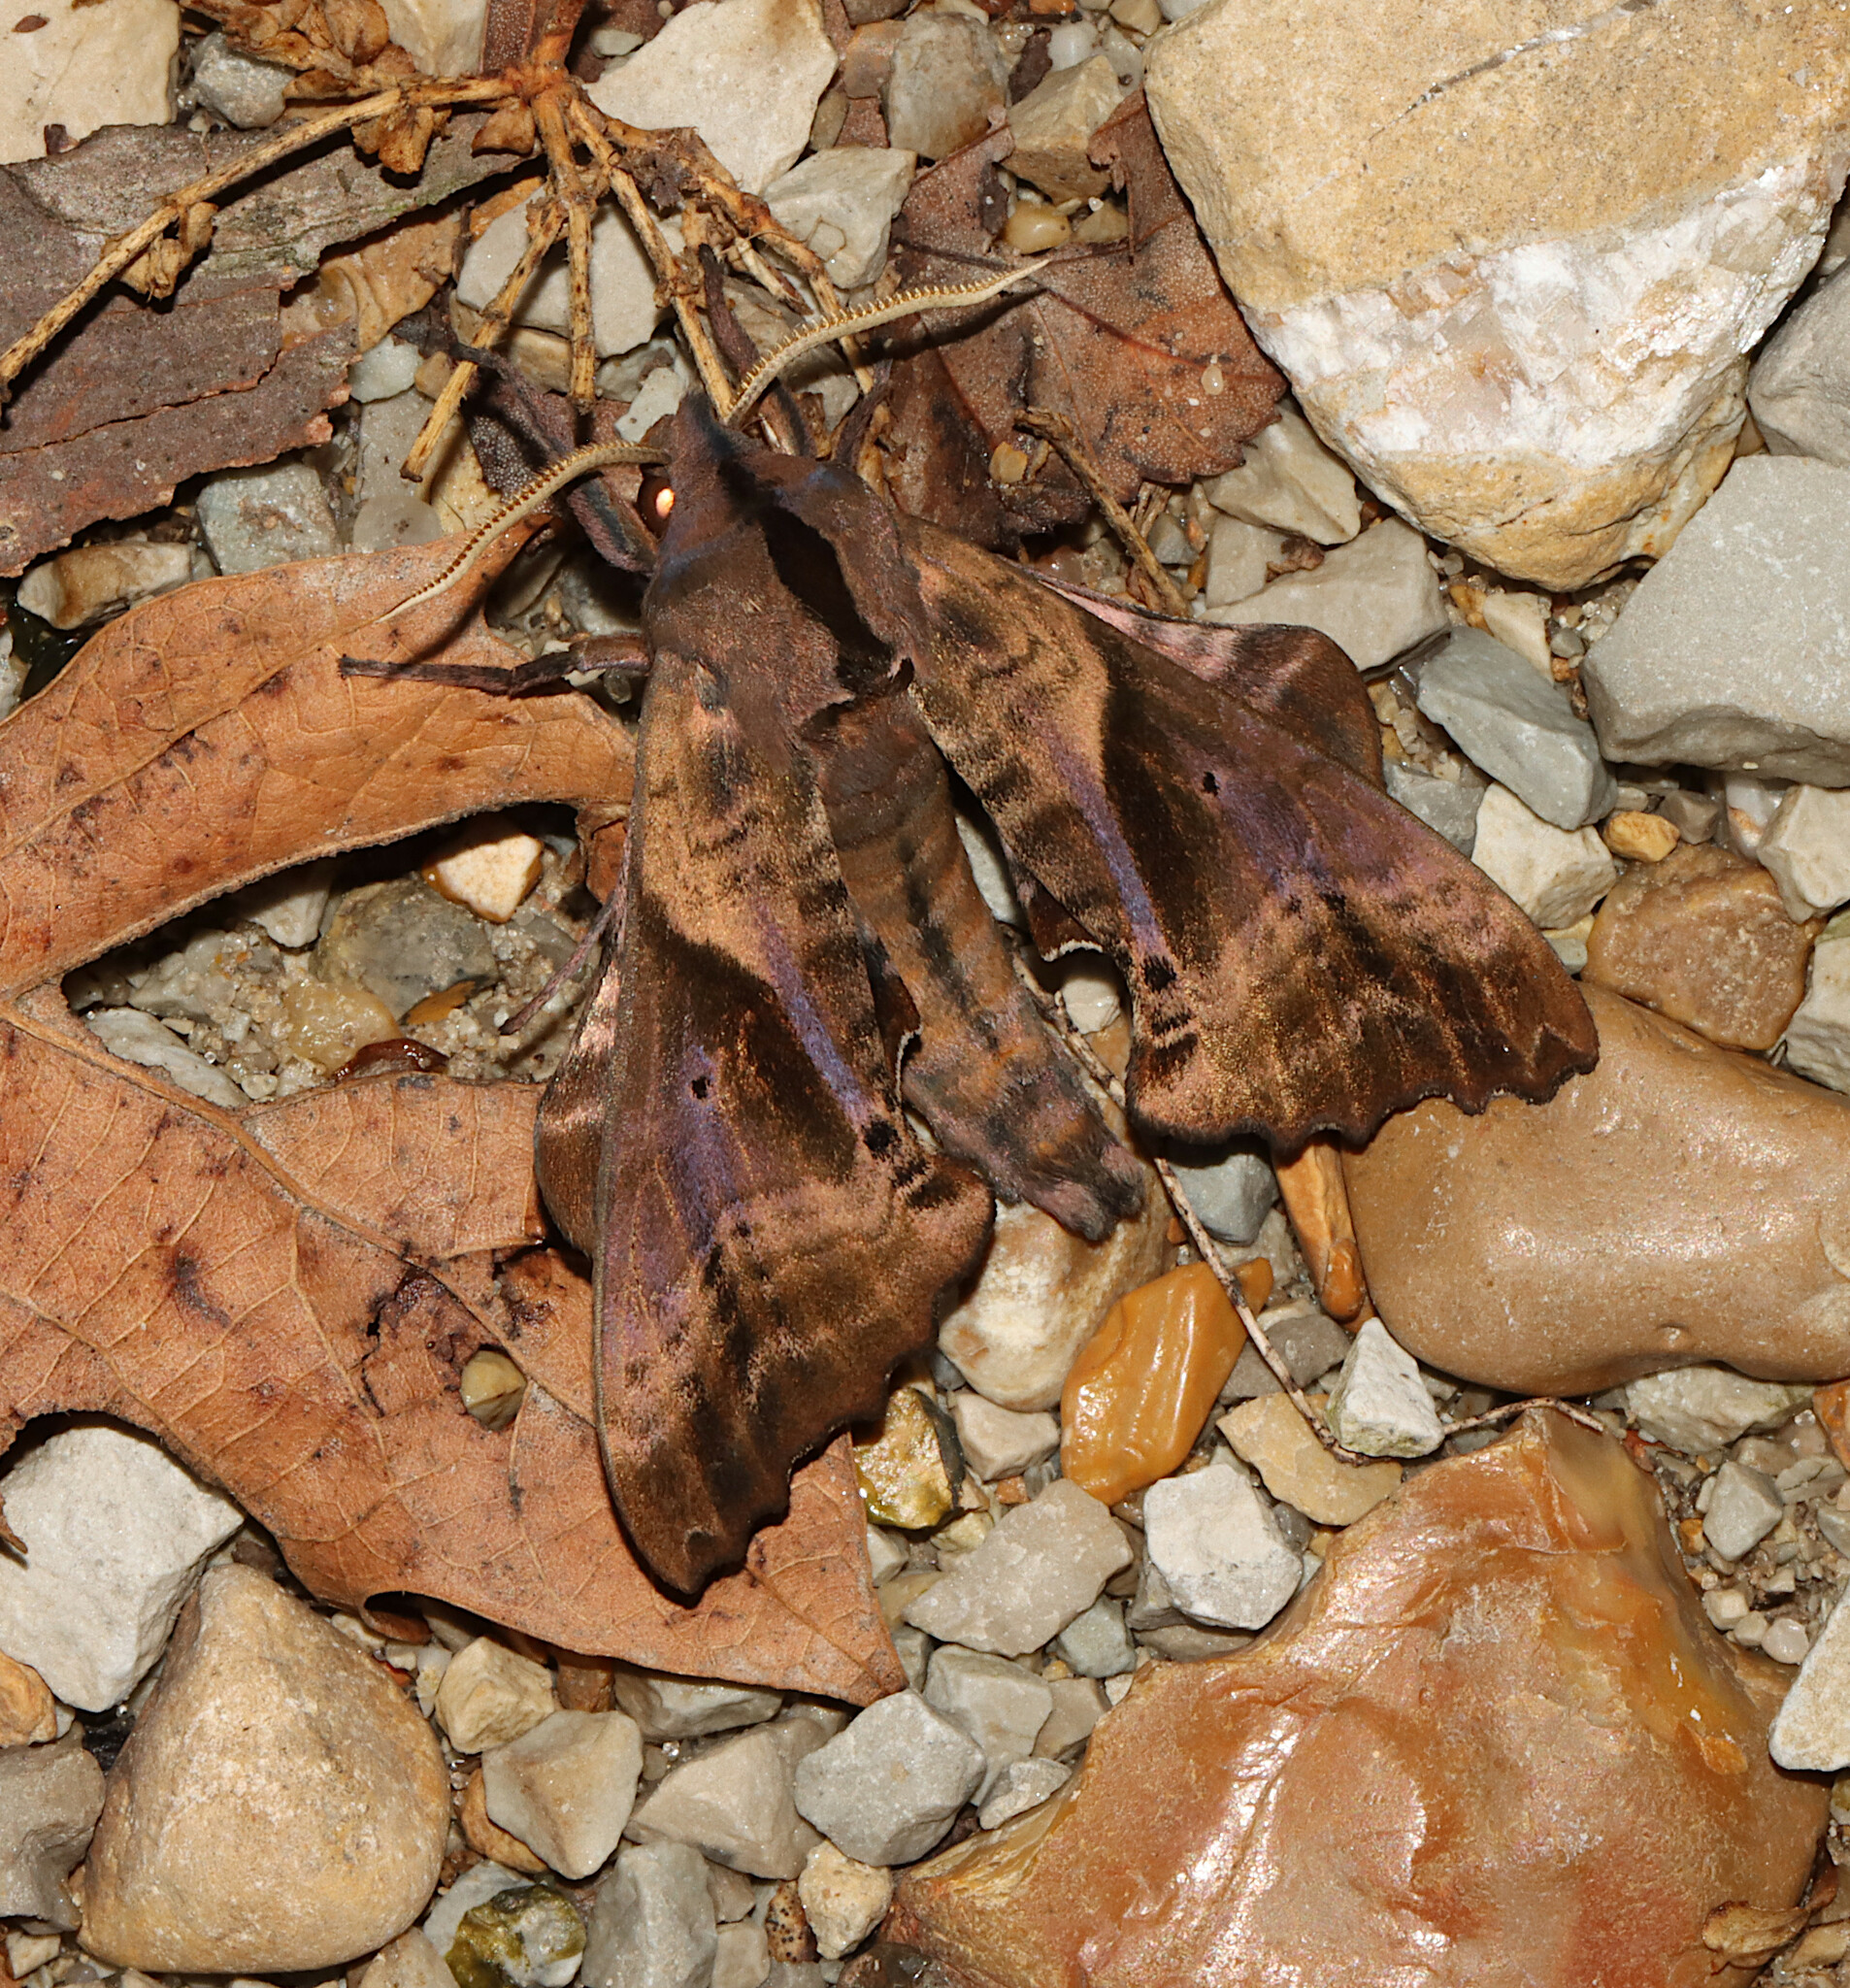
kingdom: Animalia
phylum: Arthropoda
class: Insecta
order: Lepidoptera
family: Sphingidae
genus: Paonias
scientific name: Paonias excaecata
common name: Blind-eyed sphinx
